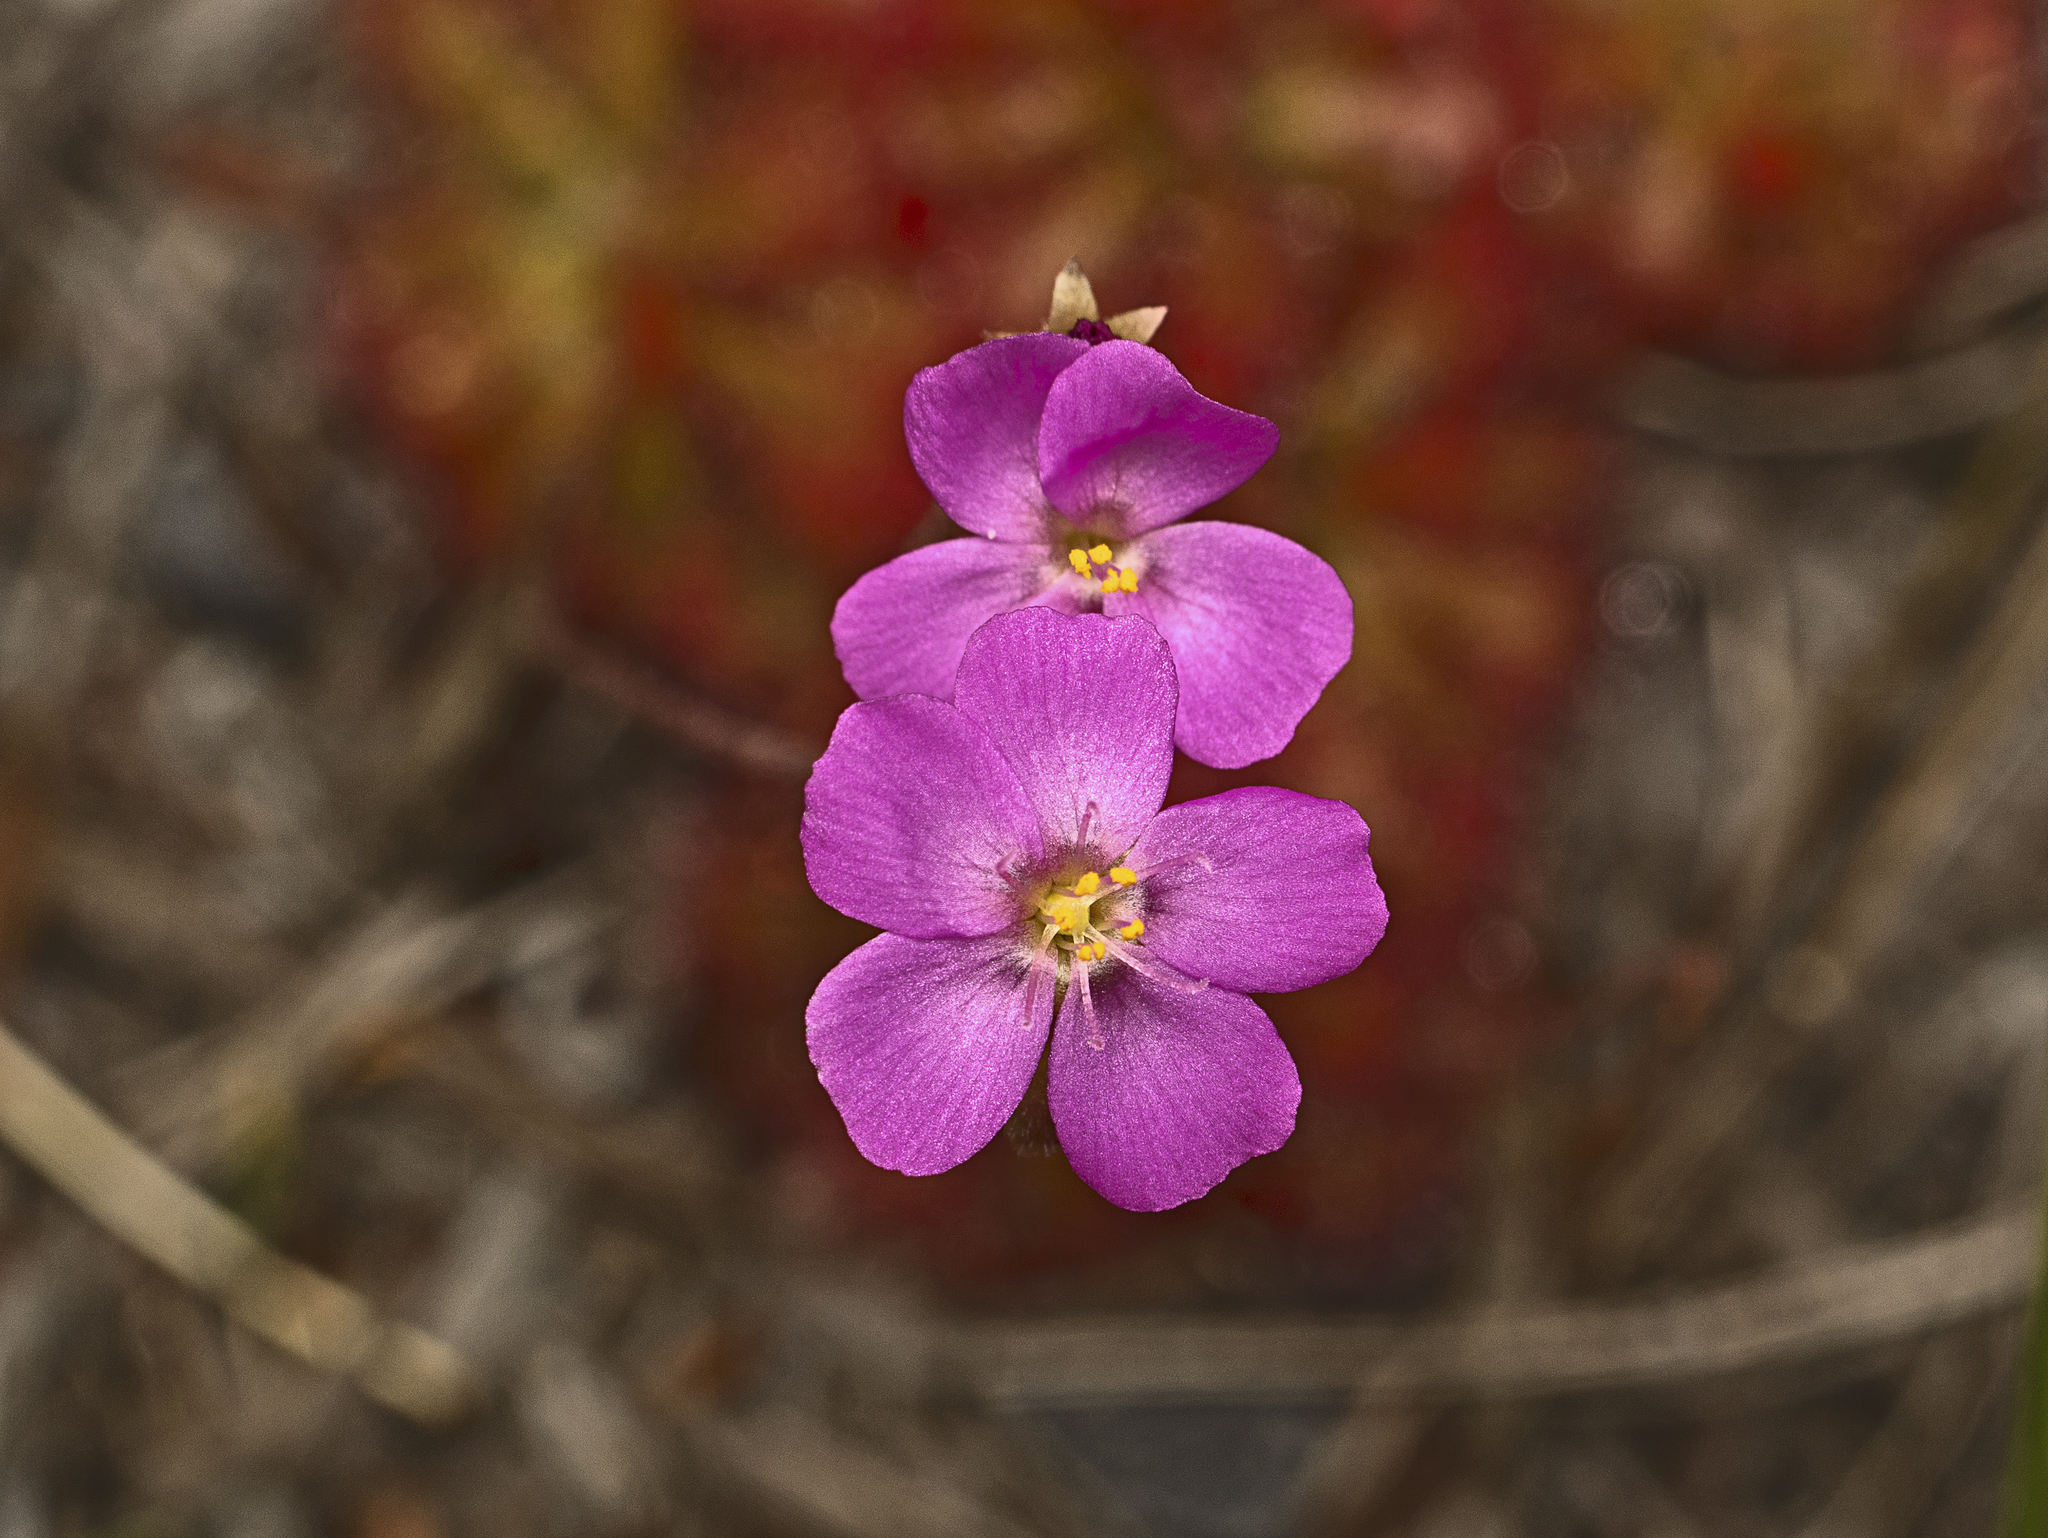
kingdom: Plantae
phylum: Tracheophyta
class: Magnoliopsida
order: Caryophyllales
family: Droseraceae
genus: Drosera
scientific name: Drosera spatulata
